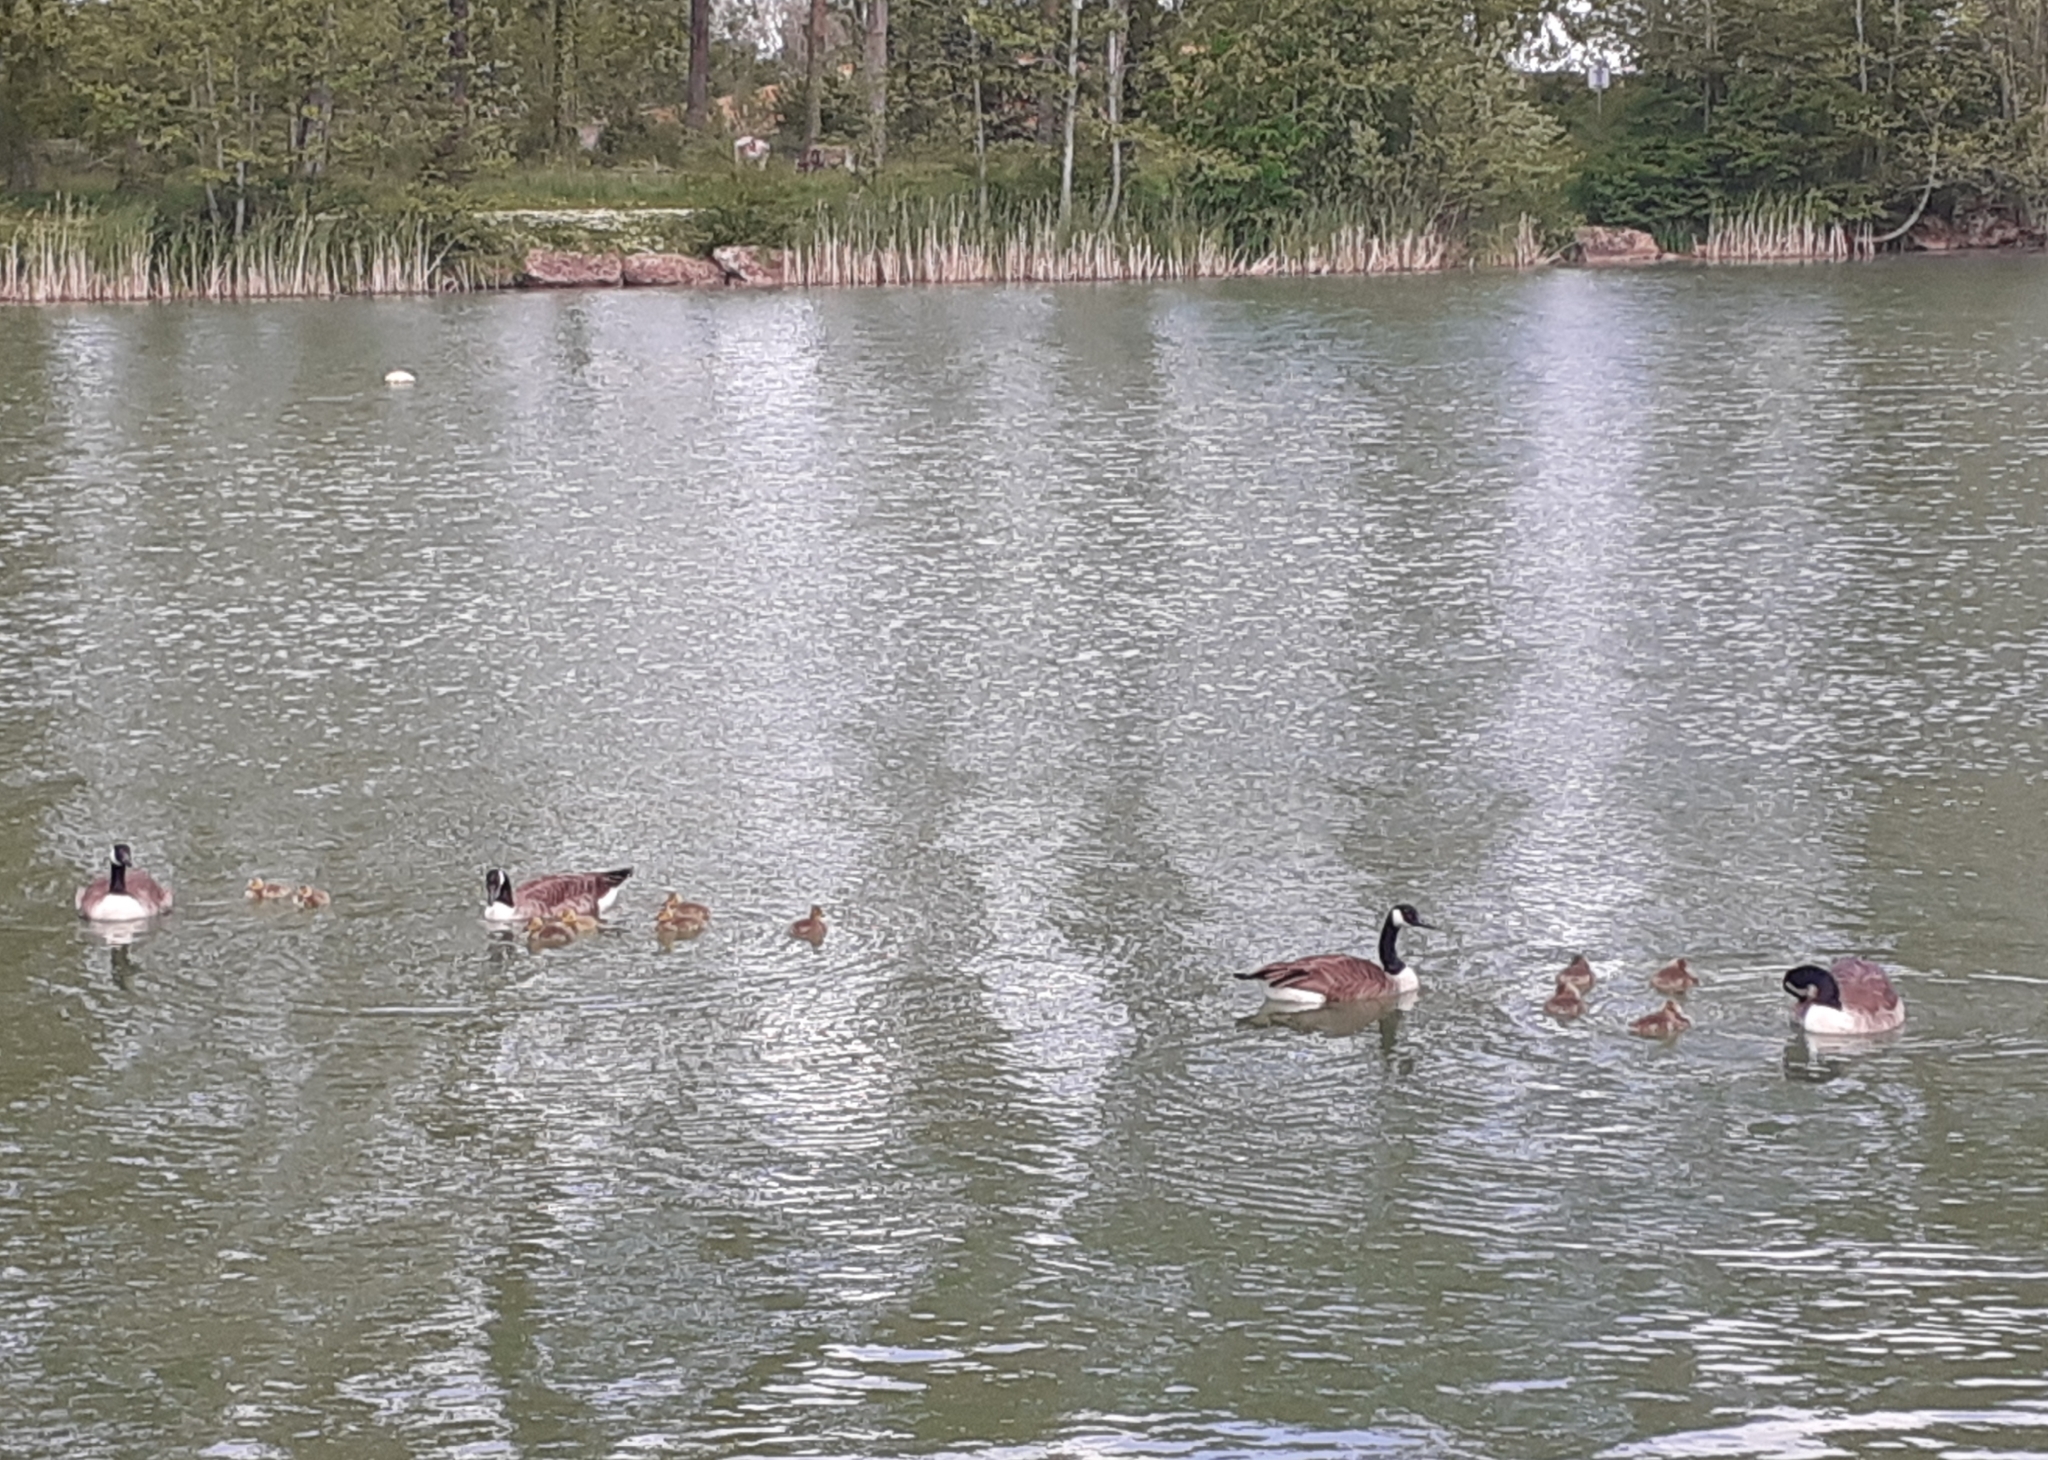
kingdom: Animalia
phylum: Chordata
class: Aves
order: Anseriformes
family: Anatidae
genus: Branta
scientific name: Branta canadensis
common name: Canada goose
